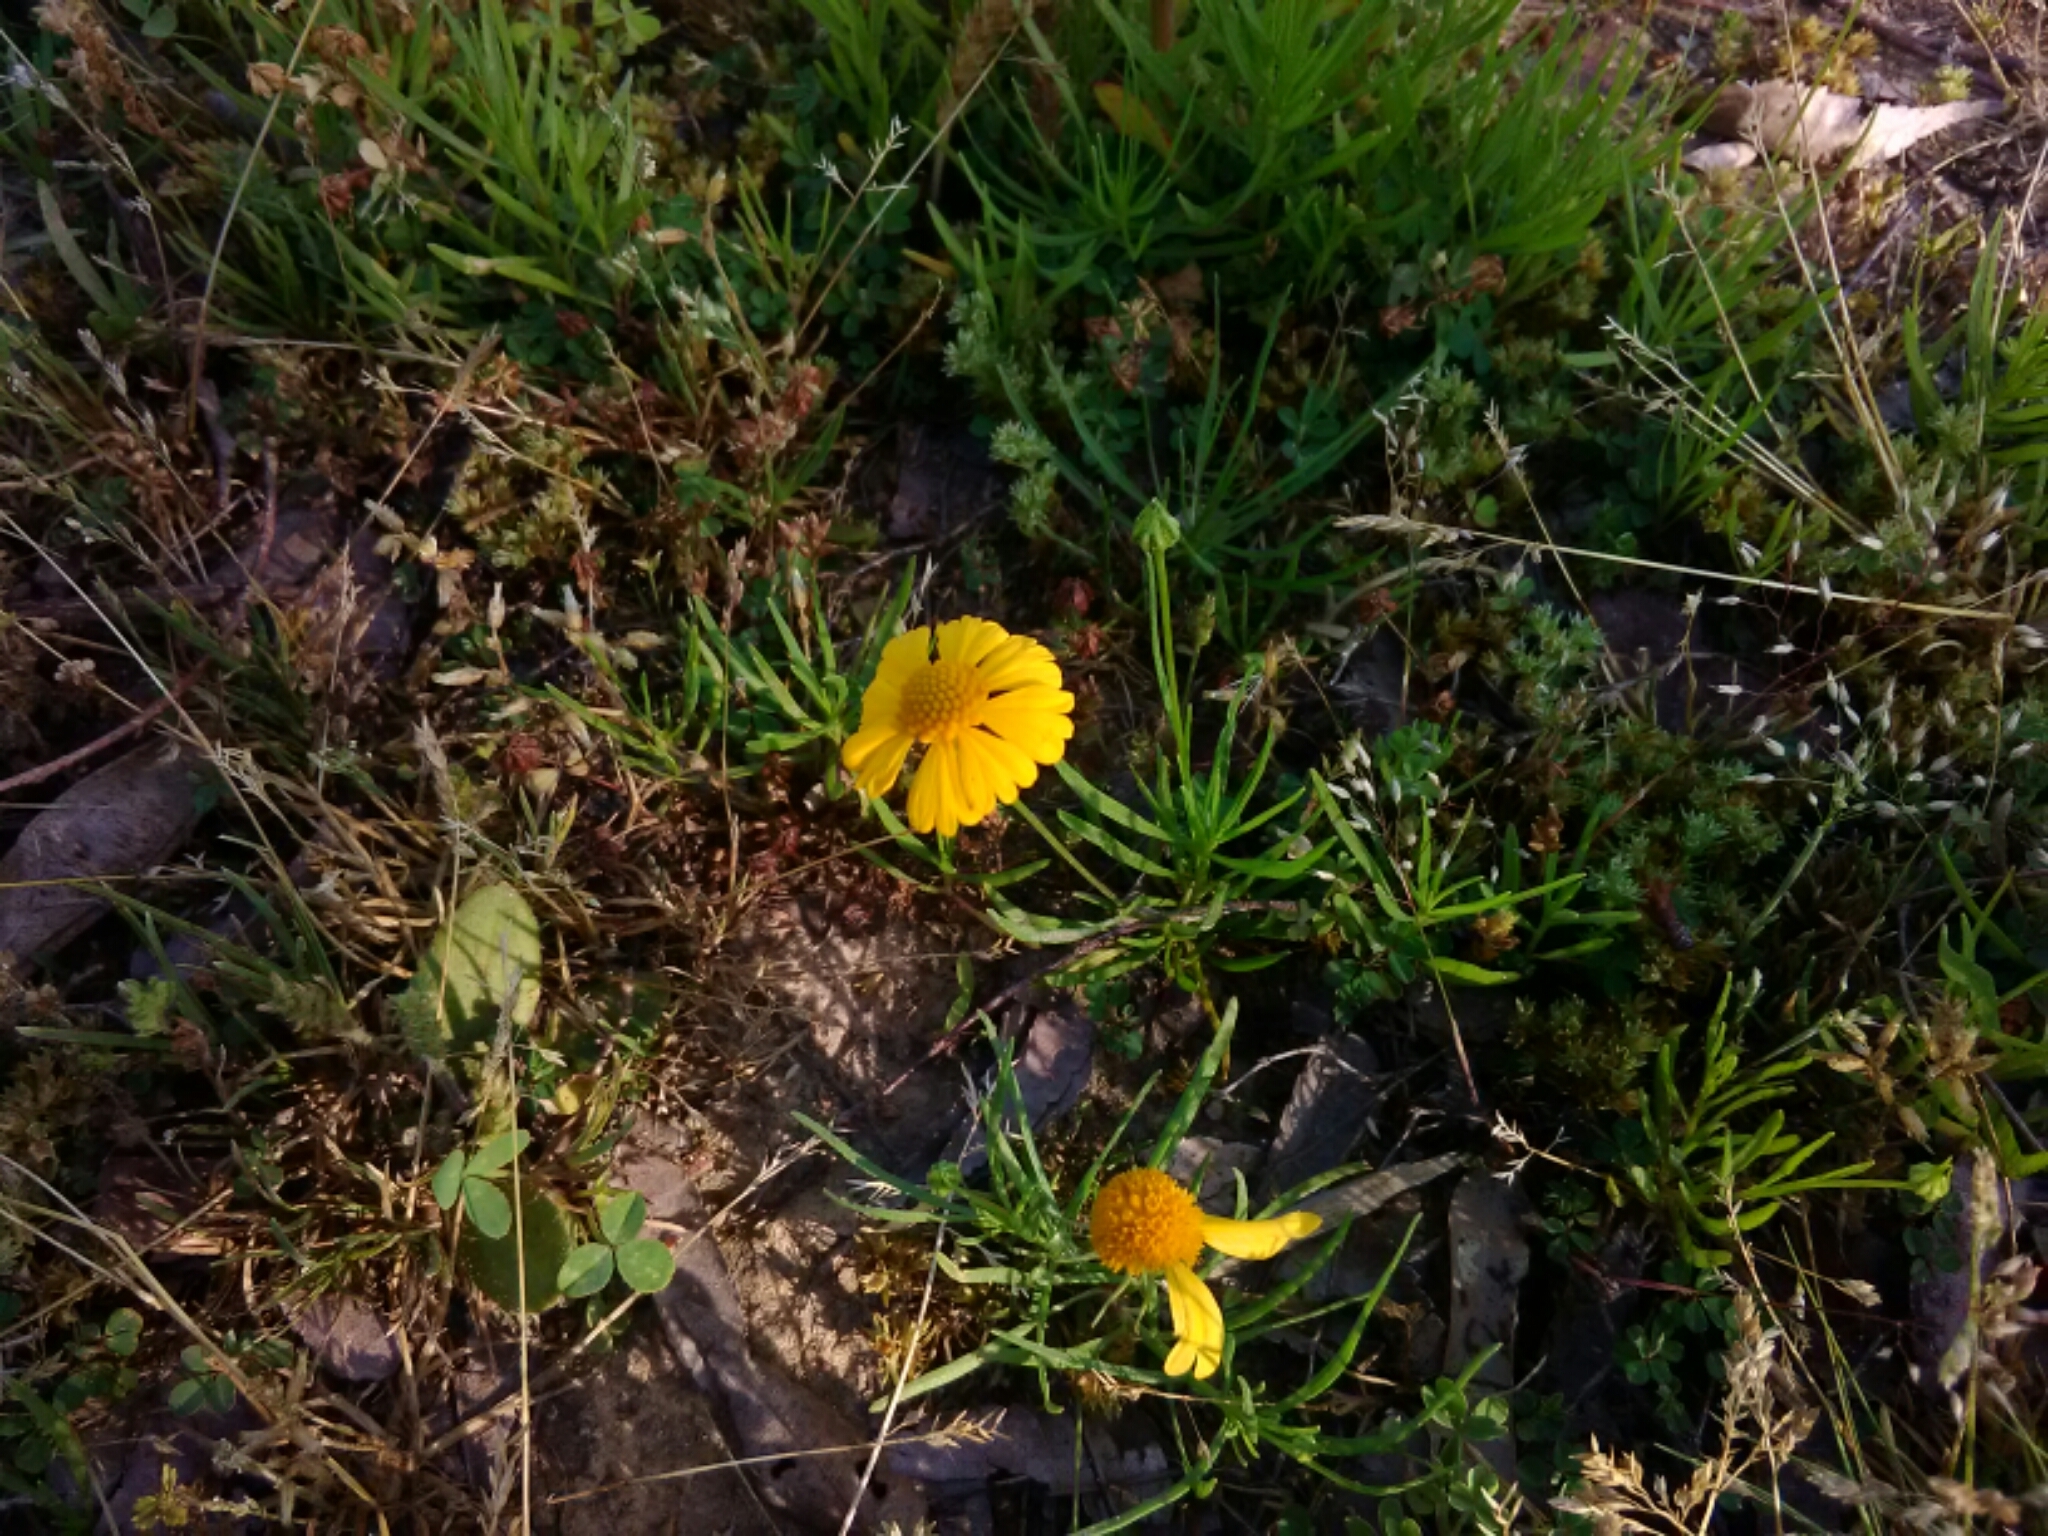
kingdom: Plantae
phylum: Tracheophyta
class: Magnoliopsida
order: Asterales
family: Asteraceae
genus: Helenium
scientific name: Helenium amarum
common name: Bitter sneezeweed
